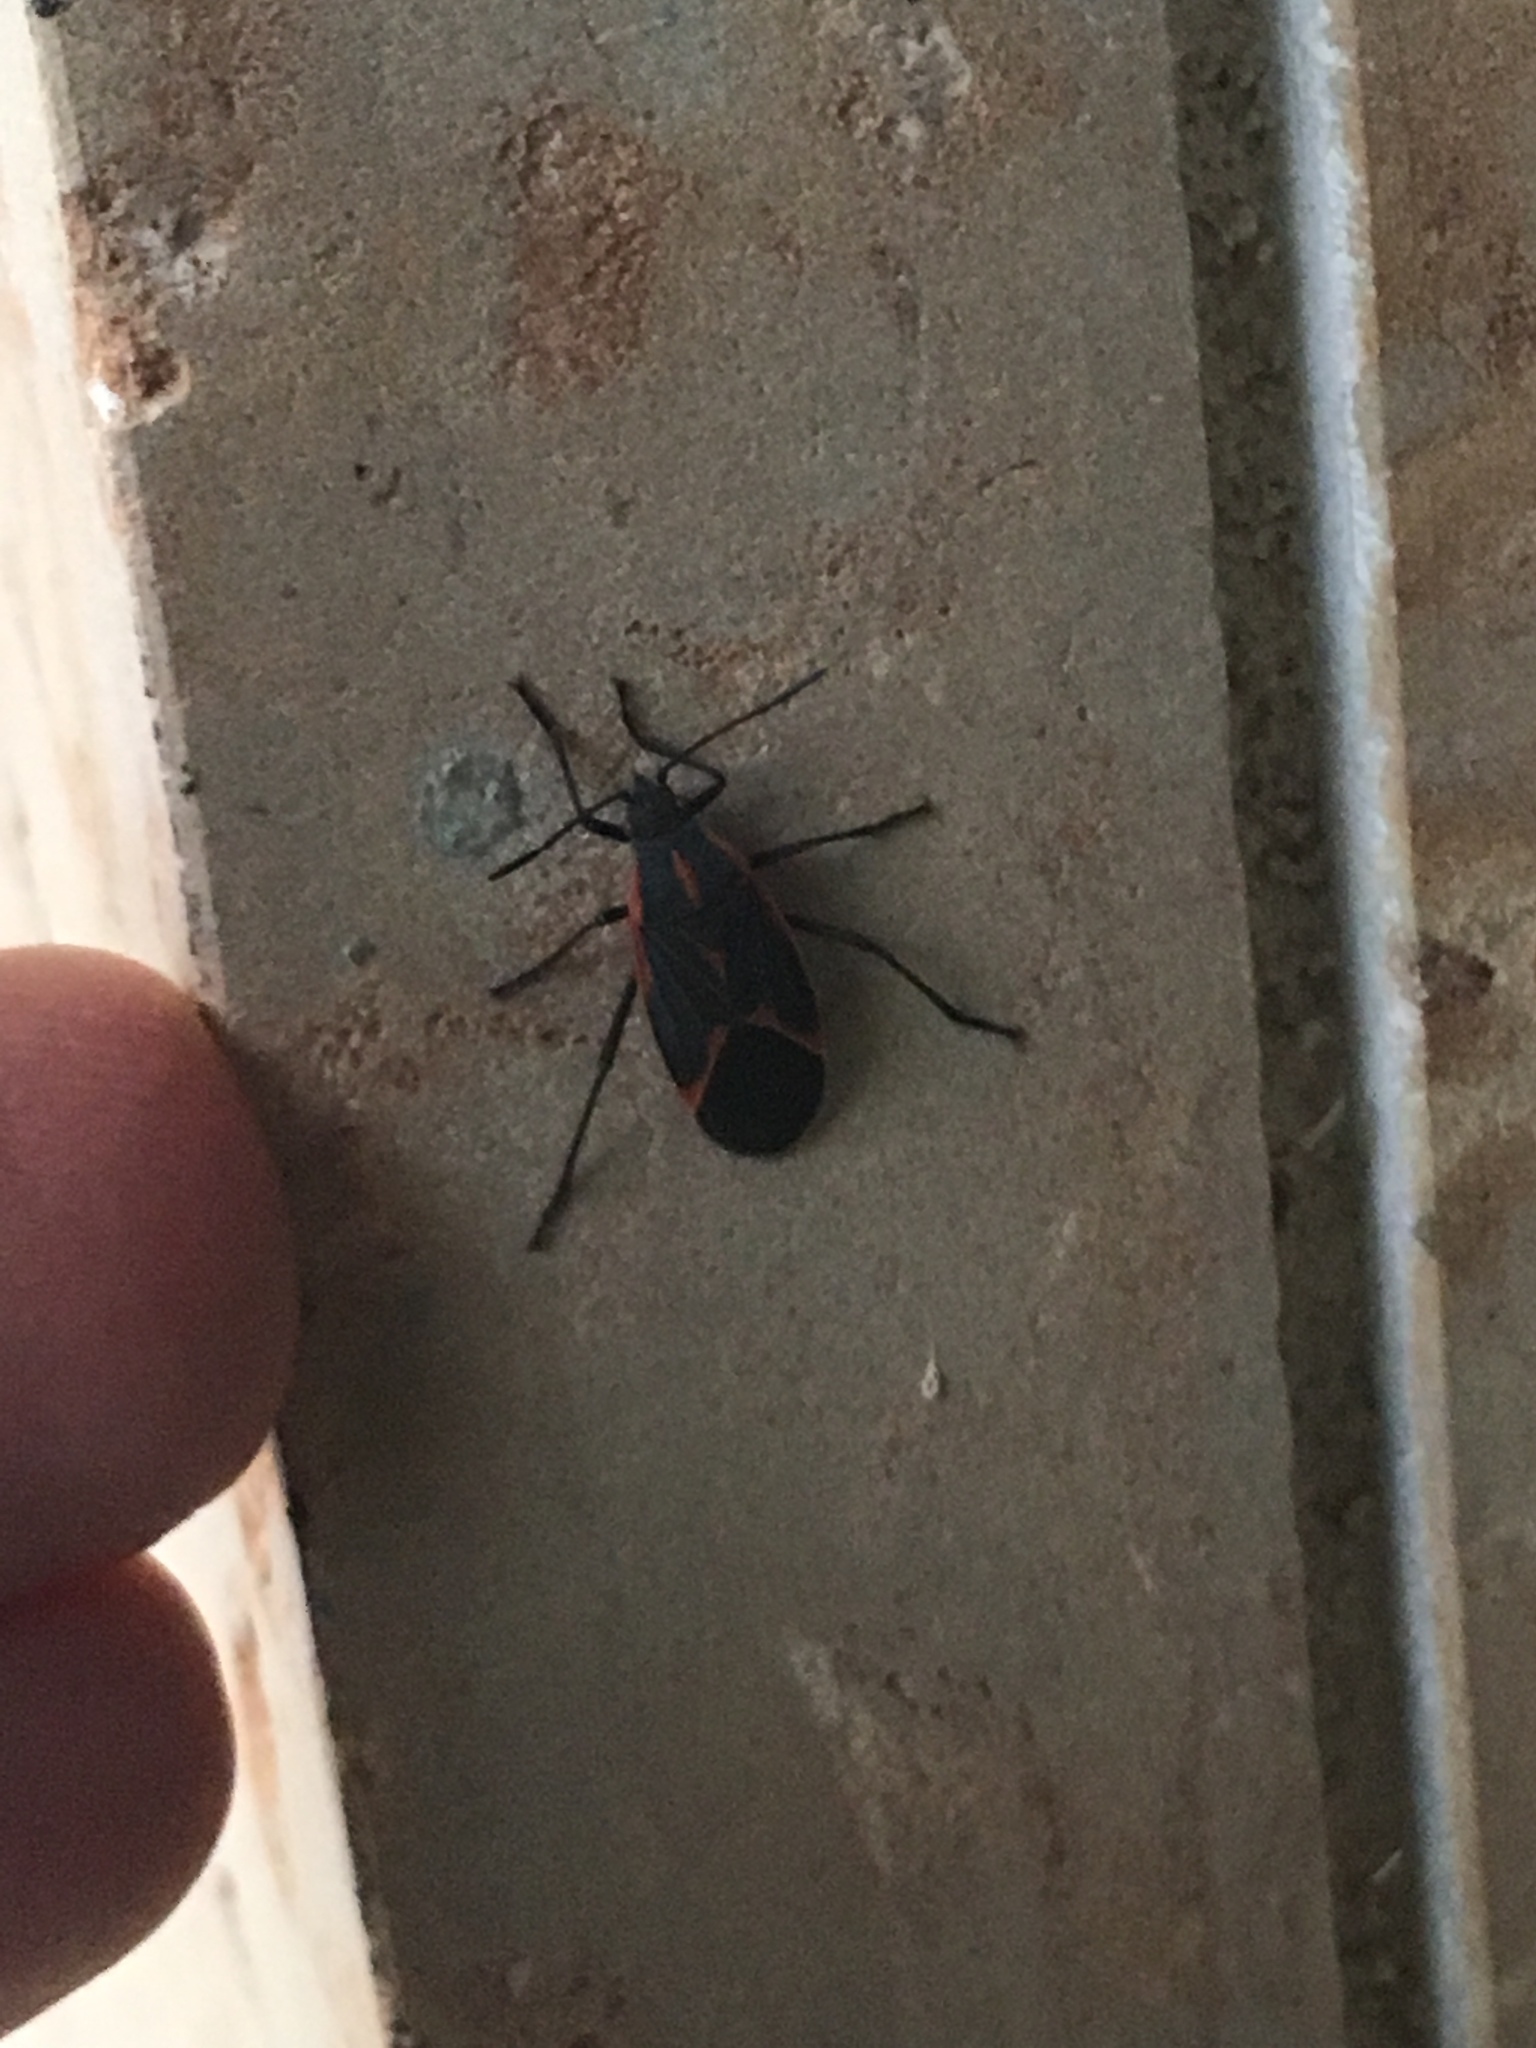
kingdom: Animalia
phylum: Arthropoda
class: Insecta
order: Hemiptera
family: Rhopalidae
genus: Boisea
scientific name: Boisea trivittata
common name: Boxelder bug
